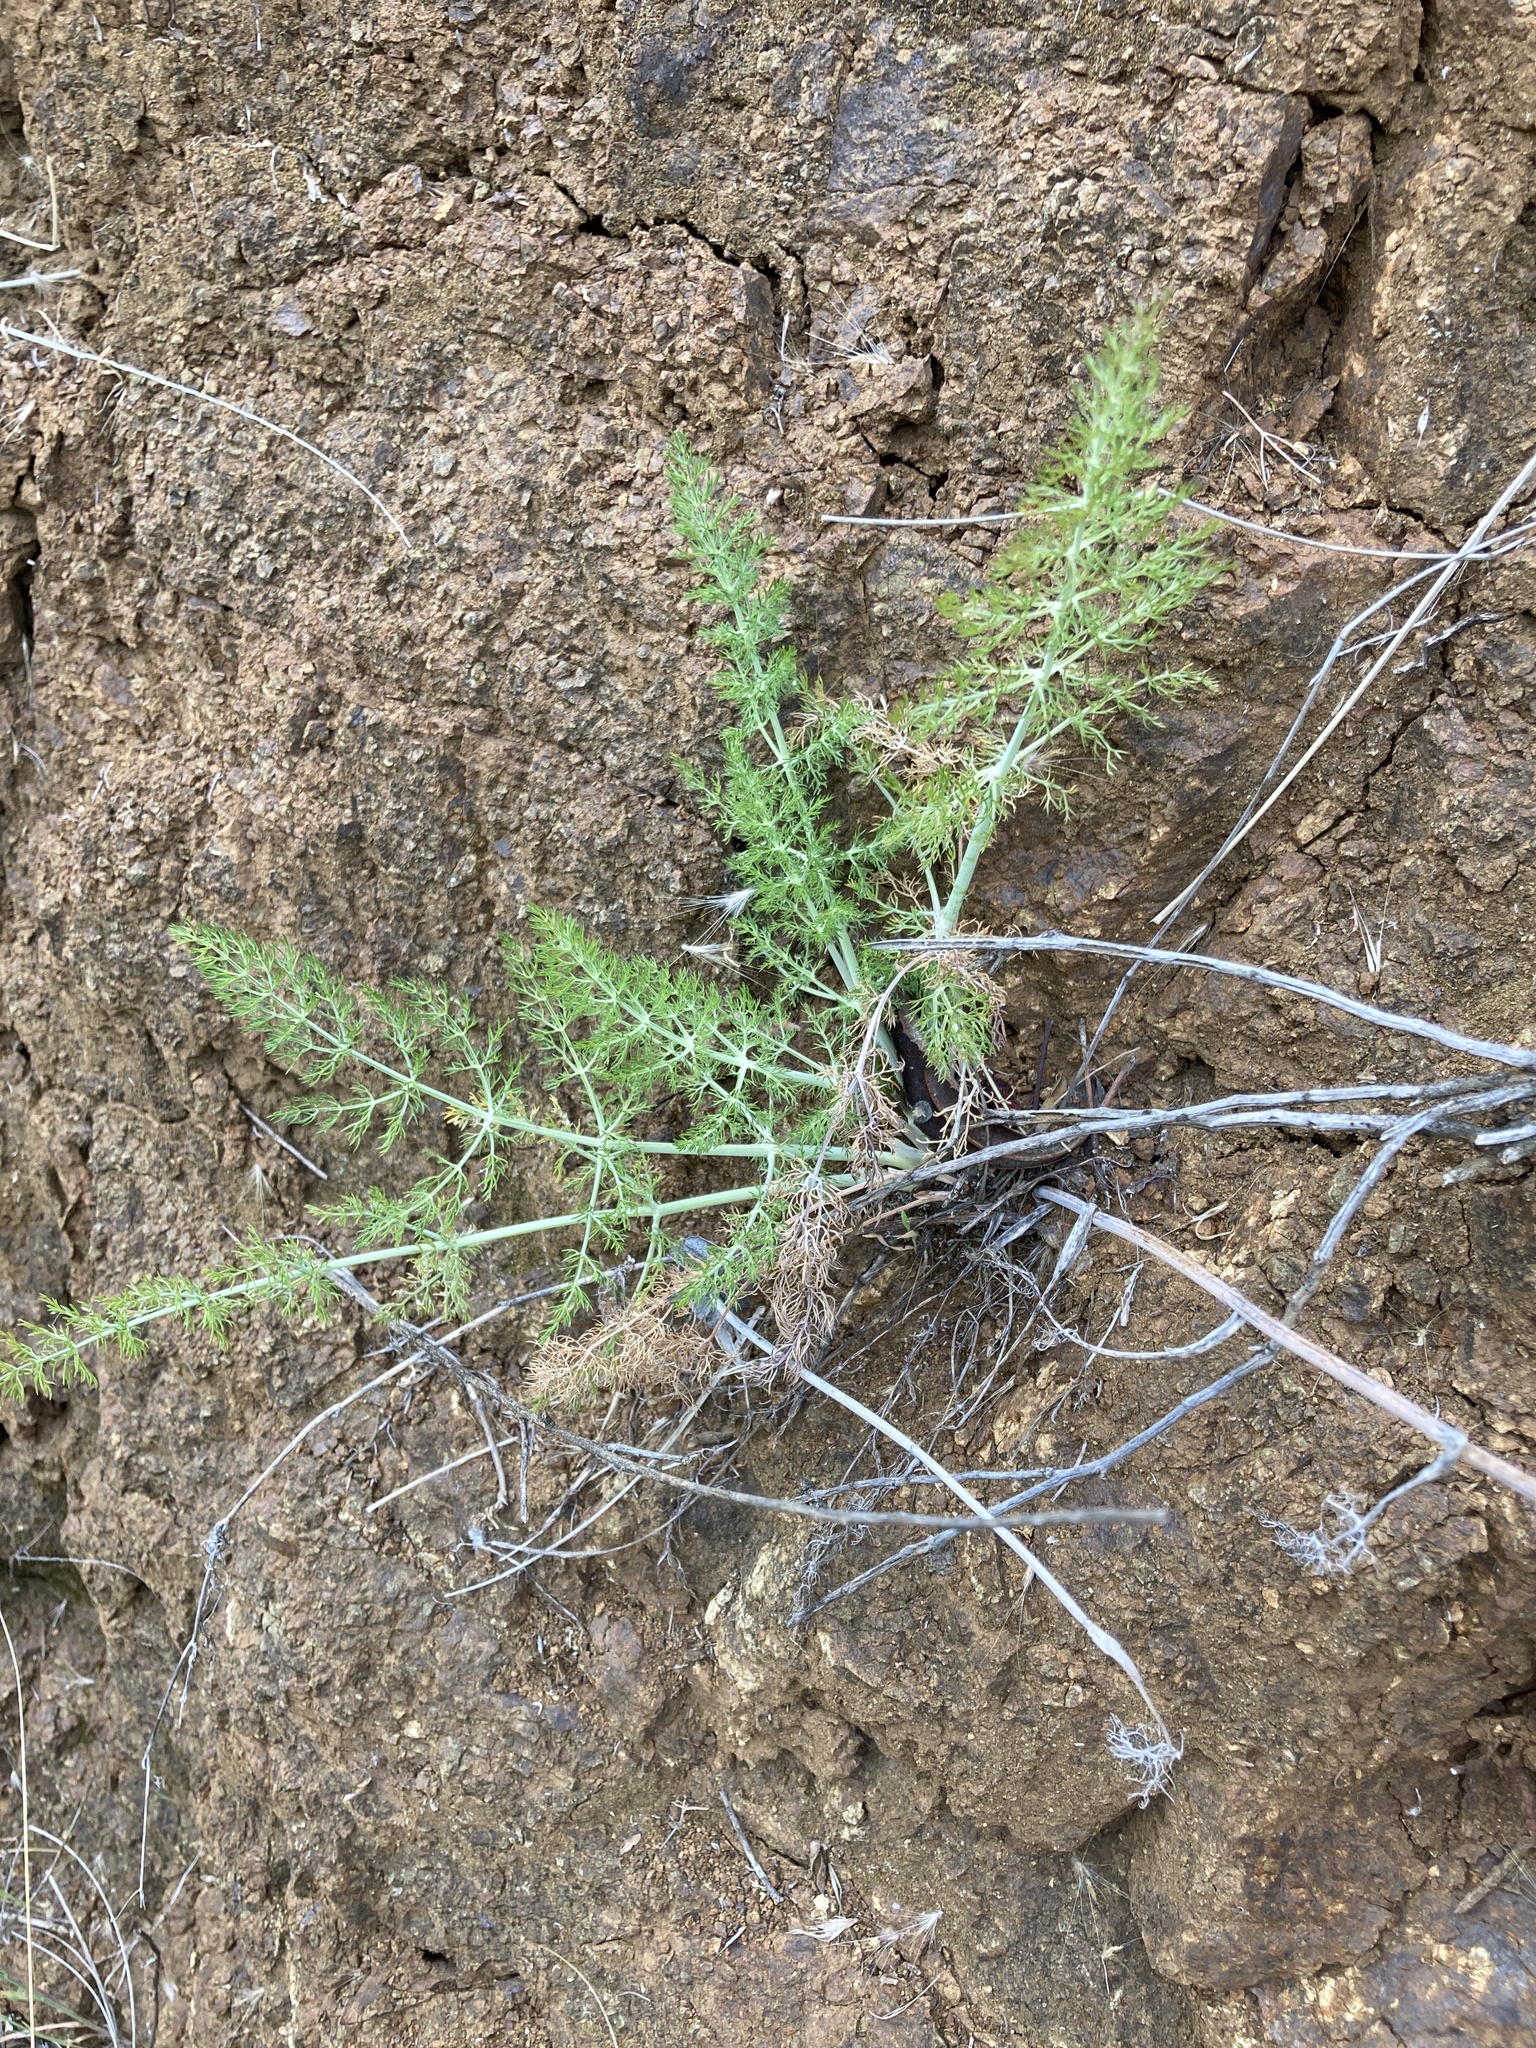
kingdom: Plantae
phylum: Tracheophyta
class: Magnoliopsida
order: Apiales
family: Apiaceae
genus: Foeniculum
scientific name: Foeniculum vulgare
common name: Fennel
